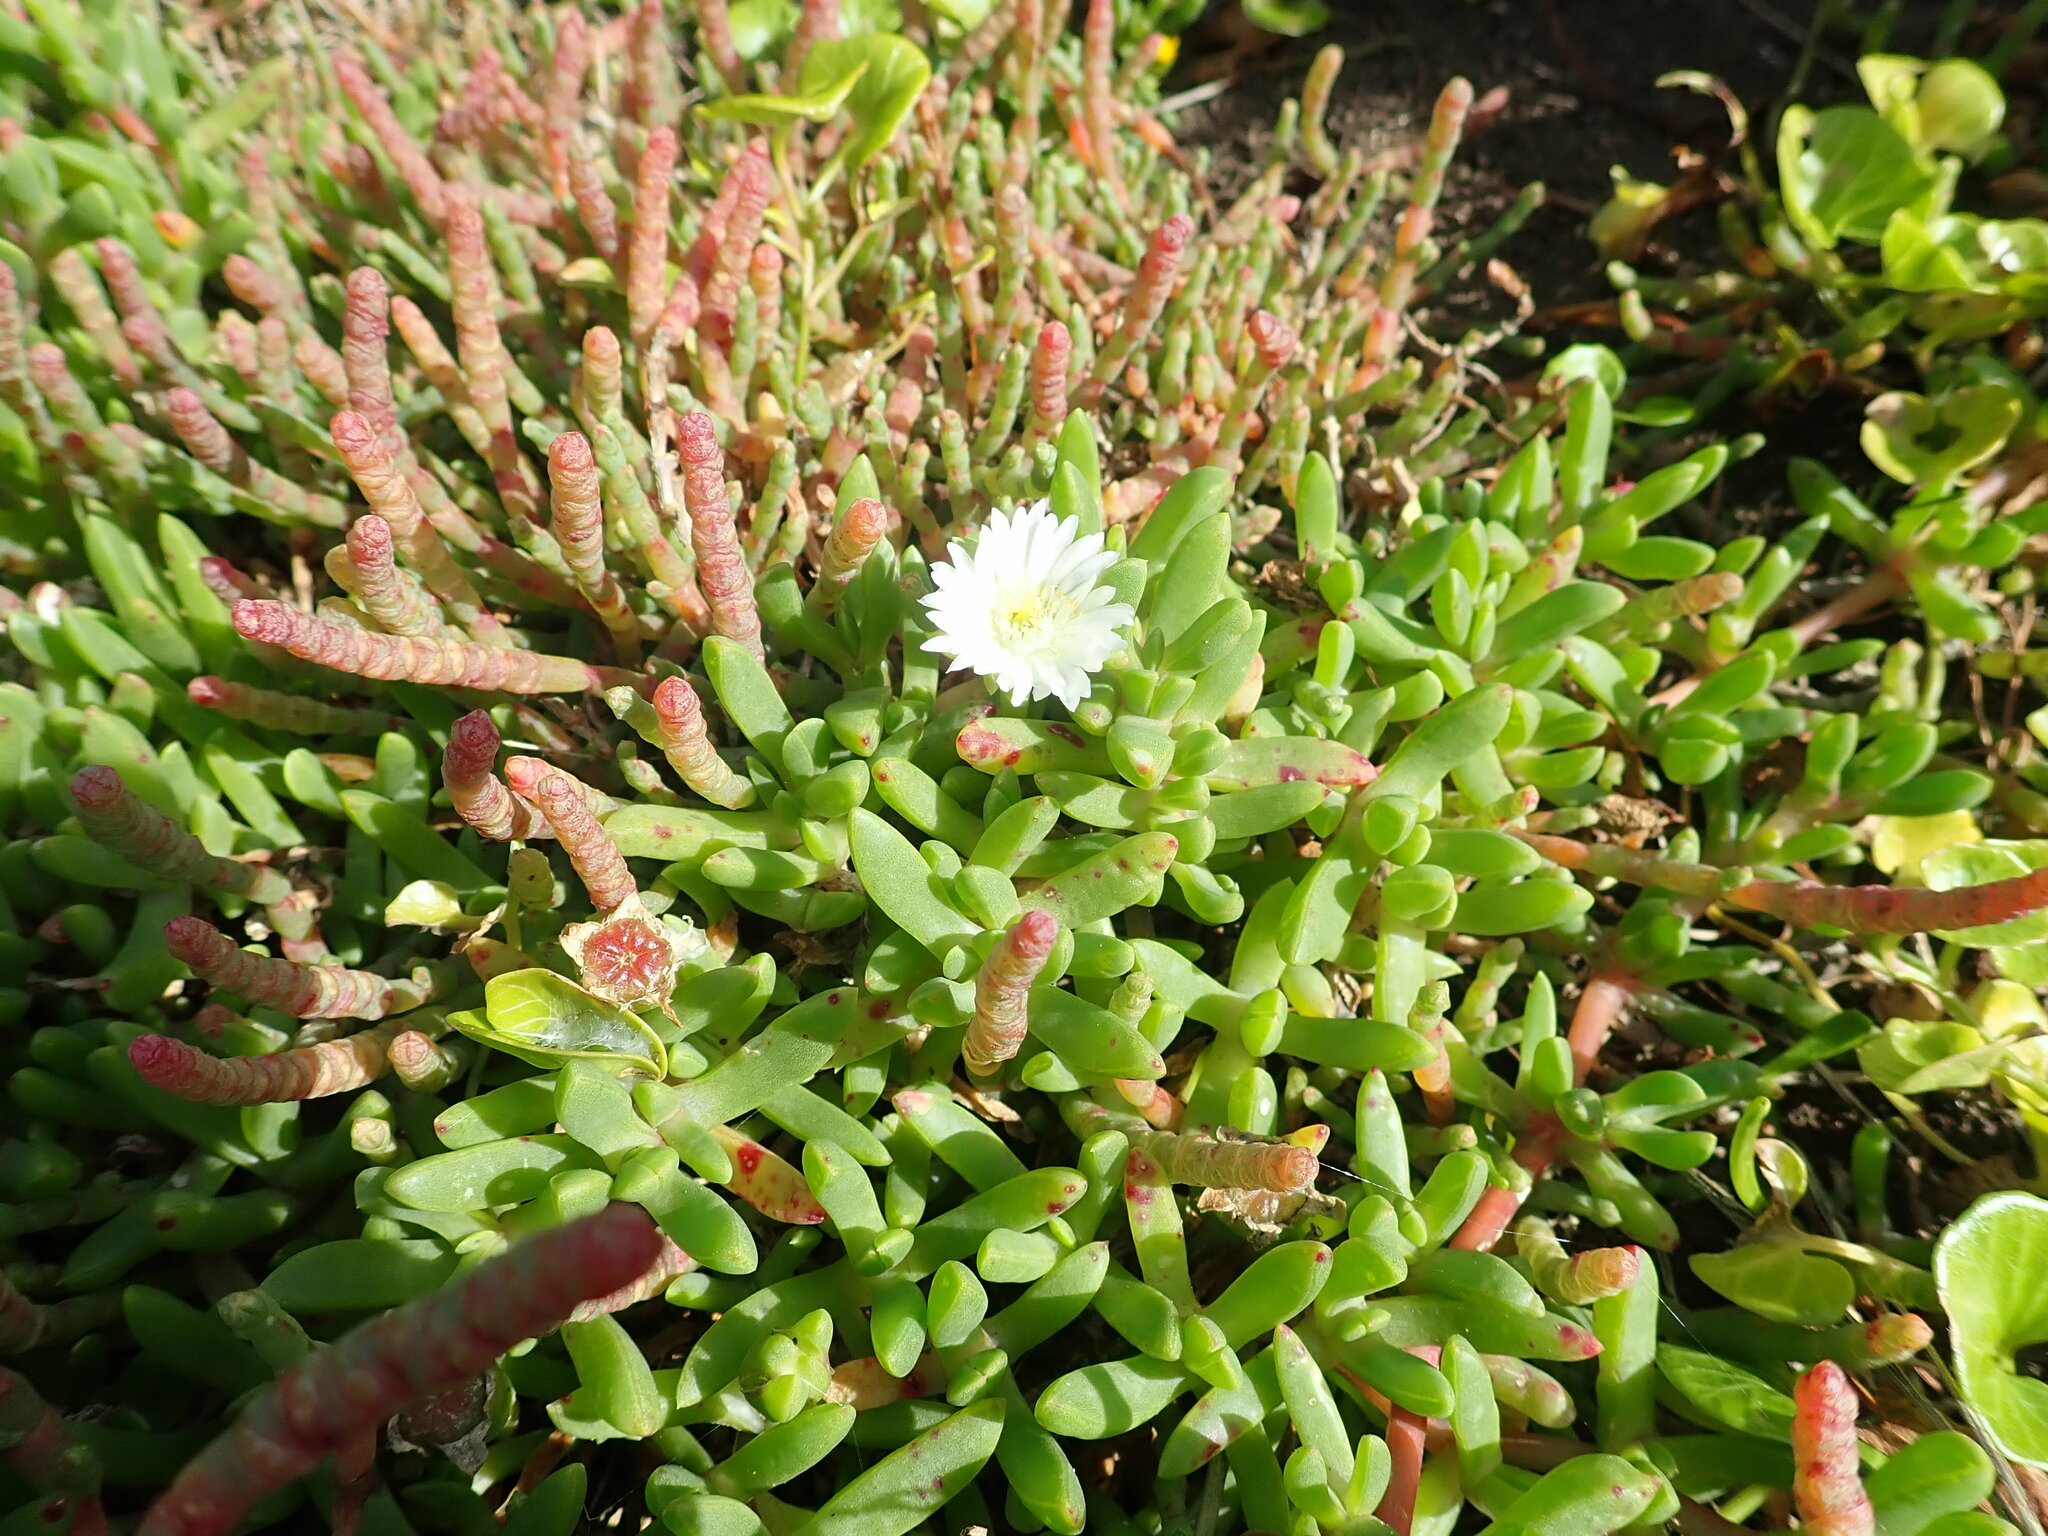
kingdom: Plantae
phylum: Tracheophyta
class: Magnoliopsida
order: Caryophyllales
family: Aizoaceae
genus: Disphyma
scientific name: Disphyma australe
